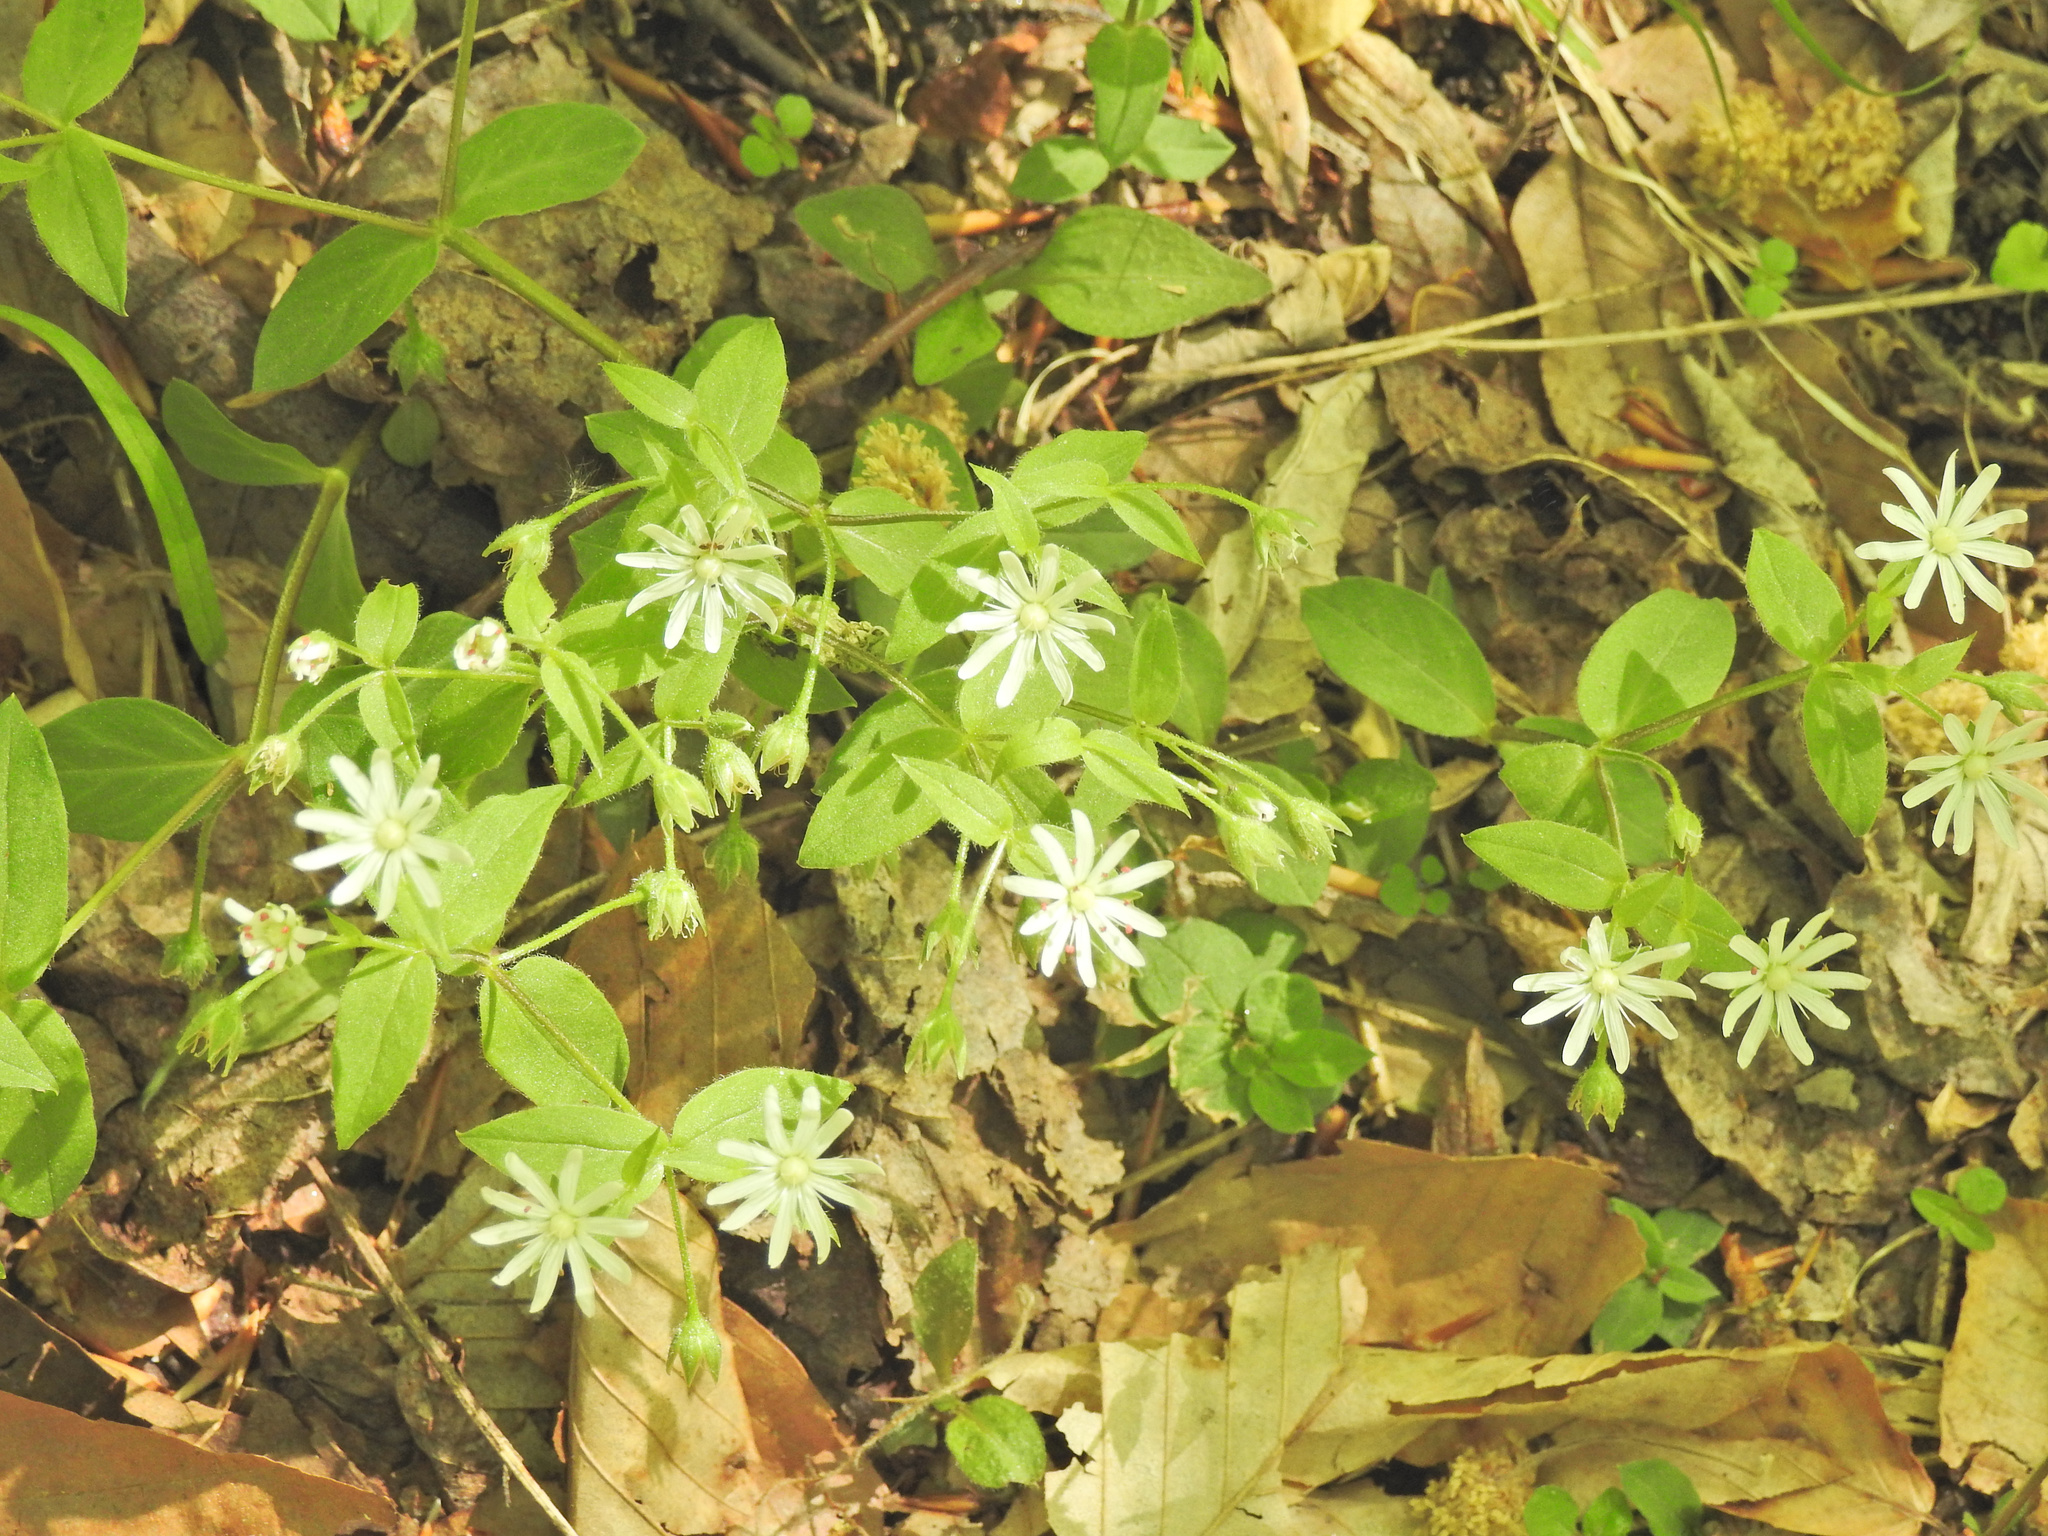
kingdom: Plantae
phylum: Tracheophyta
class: Magnoliopsida
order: Caryophyllales
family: Caryophyllaceae
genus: Stellaria
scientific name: Stellaria pubera
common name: Star chickweed
